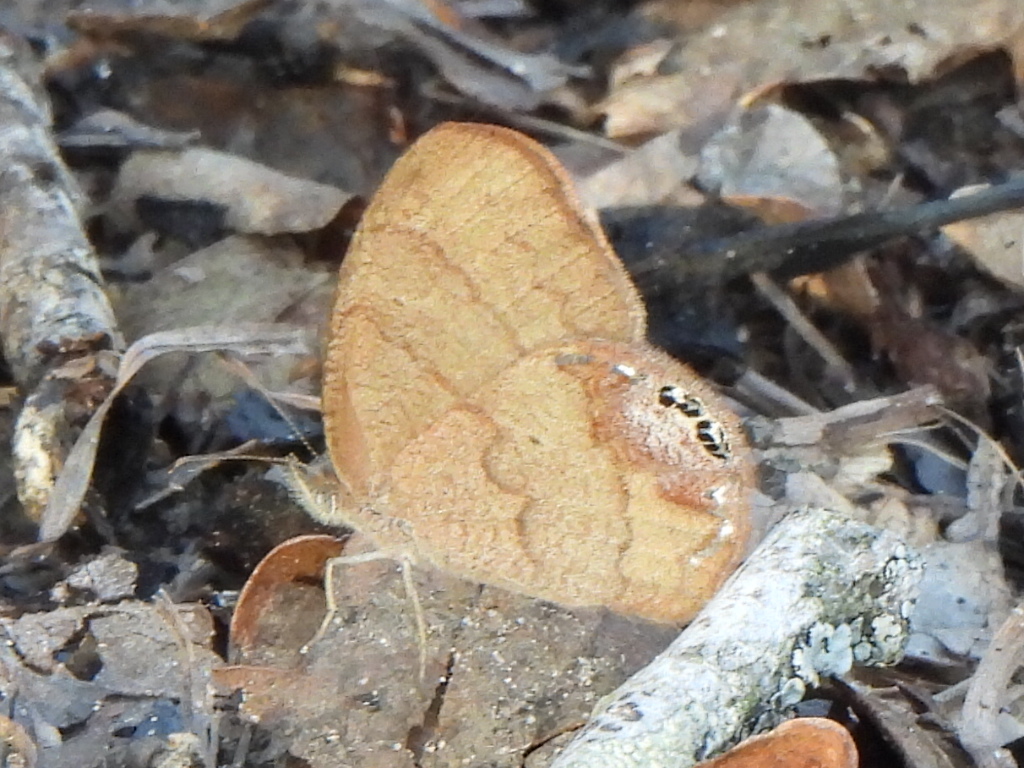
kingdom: Animalia
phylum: Arthropoda
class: Insecta
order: Lepidoptera
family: Nymphalidae
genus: Euptychia
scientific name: Euptychia cornelius
